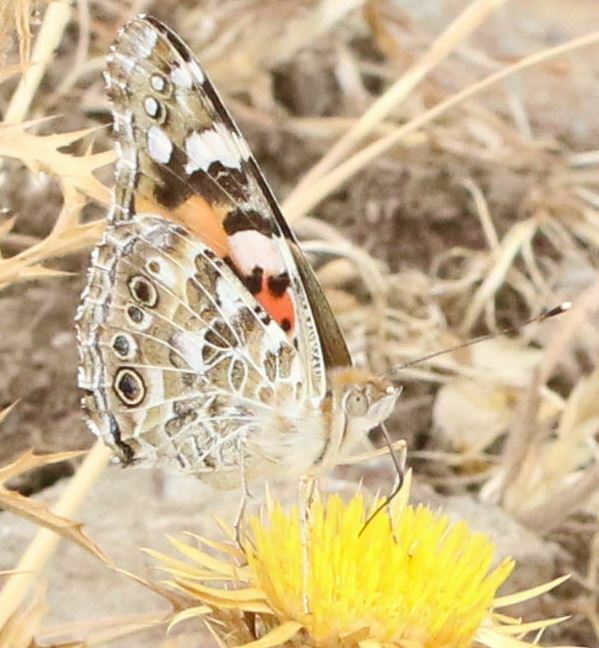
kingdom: Animalia
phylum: Arthropoda
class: Insecta
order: Lepidoptera
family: Nymphalidae
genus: Vanessa
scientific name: Vanessa cardui
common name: Painted lady
